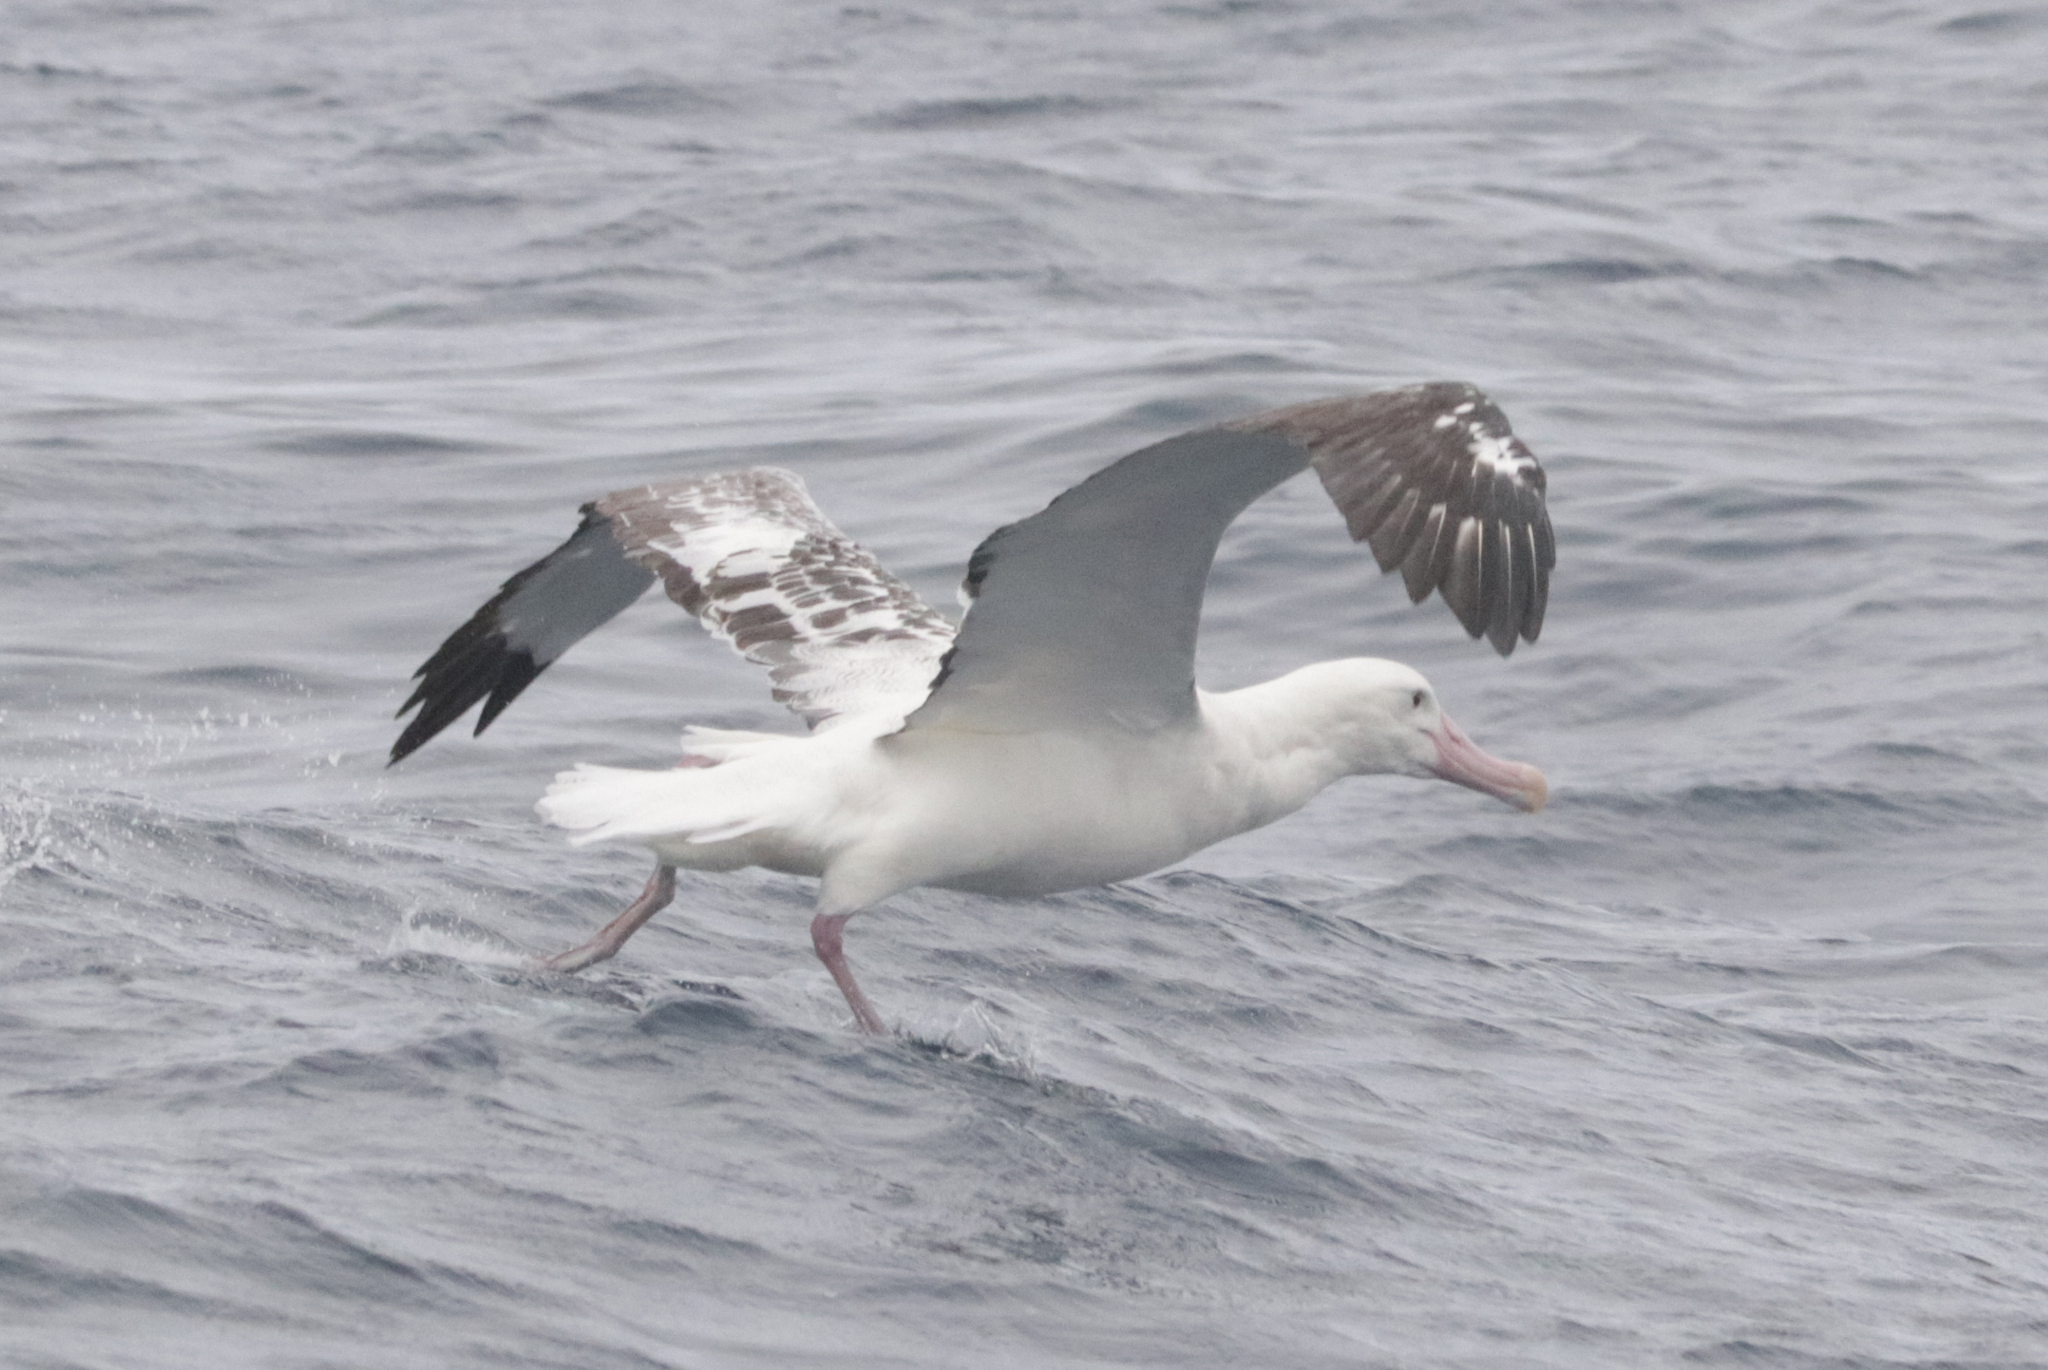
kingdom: Animalia
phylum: Chordata
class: Aves
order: Procellariiformes
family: Diomedeidae
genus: Diomedea
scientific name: Diomedea dabbenena
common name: Tristan albatross
